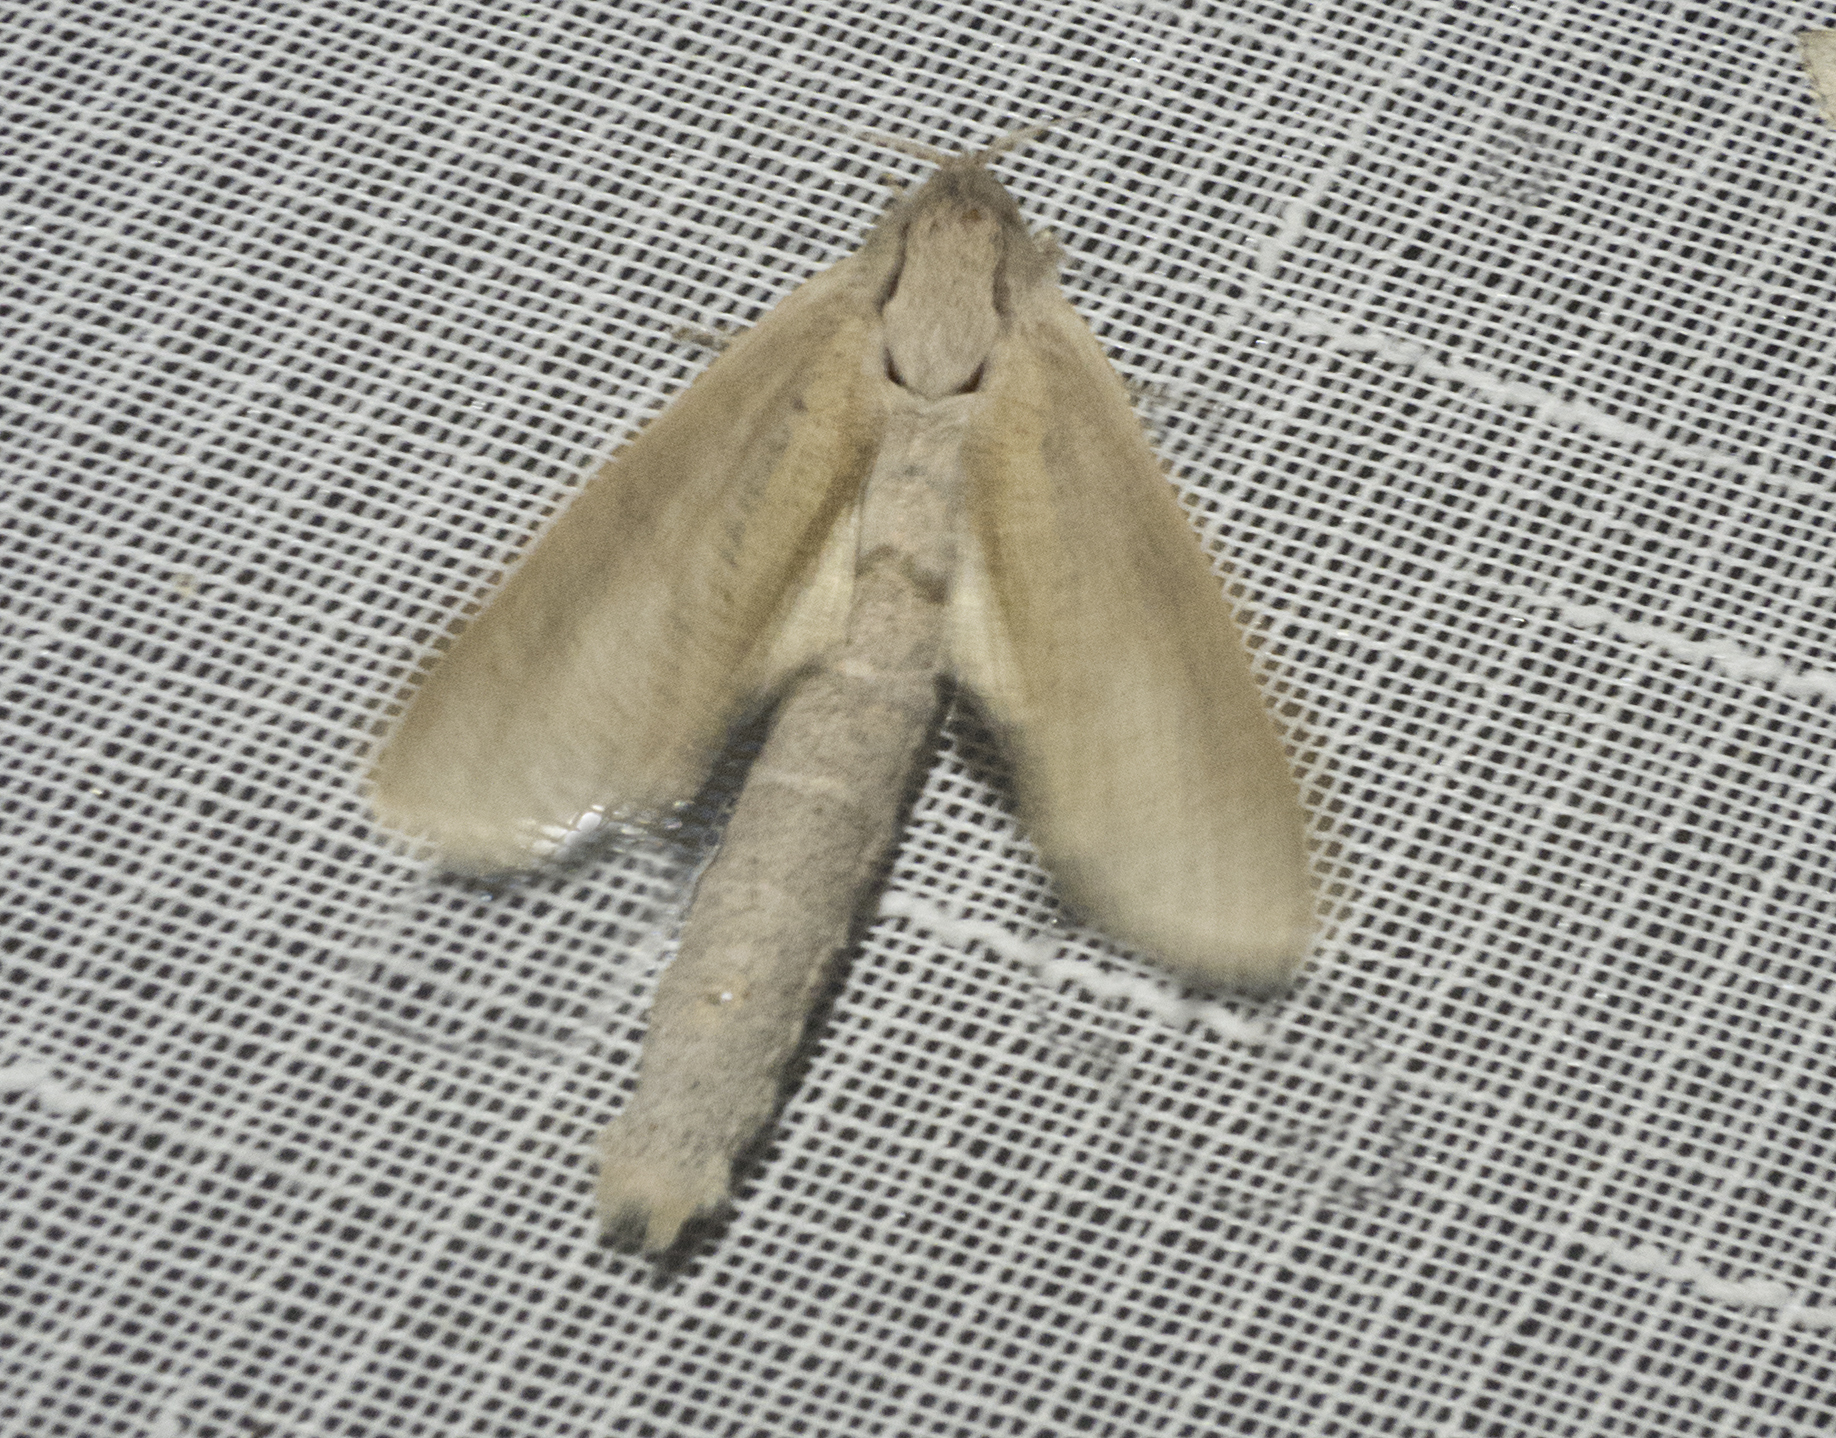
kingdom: Animalia
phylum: Arthropoda
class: Insecta
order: Lepidoptera
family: Cossidae
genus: Phragmataecia
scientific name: Phragmataecia castaneae
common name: Reed leopard
